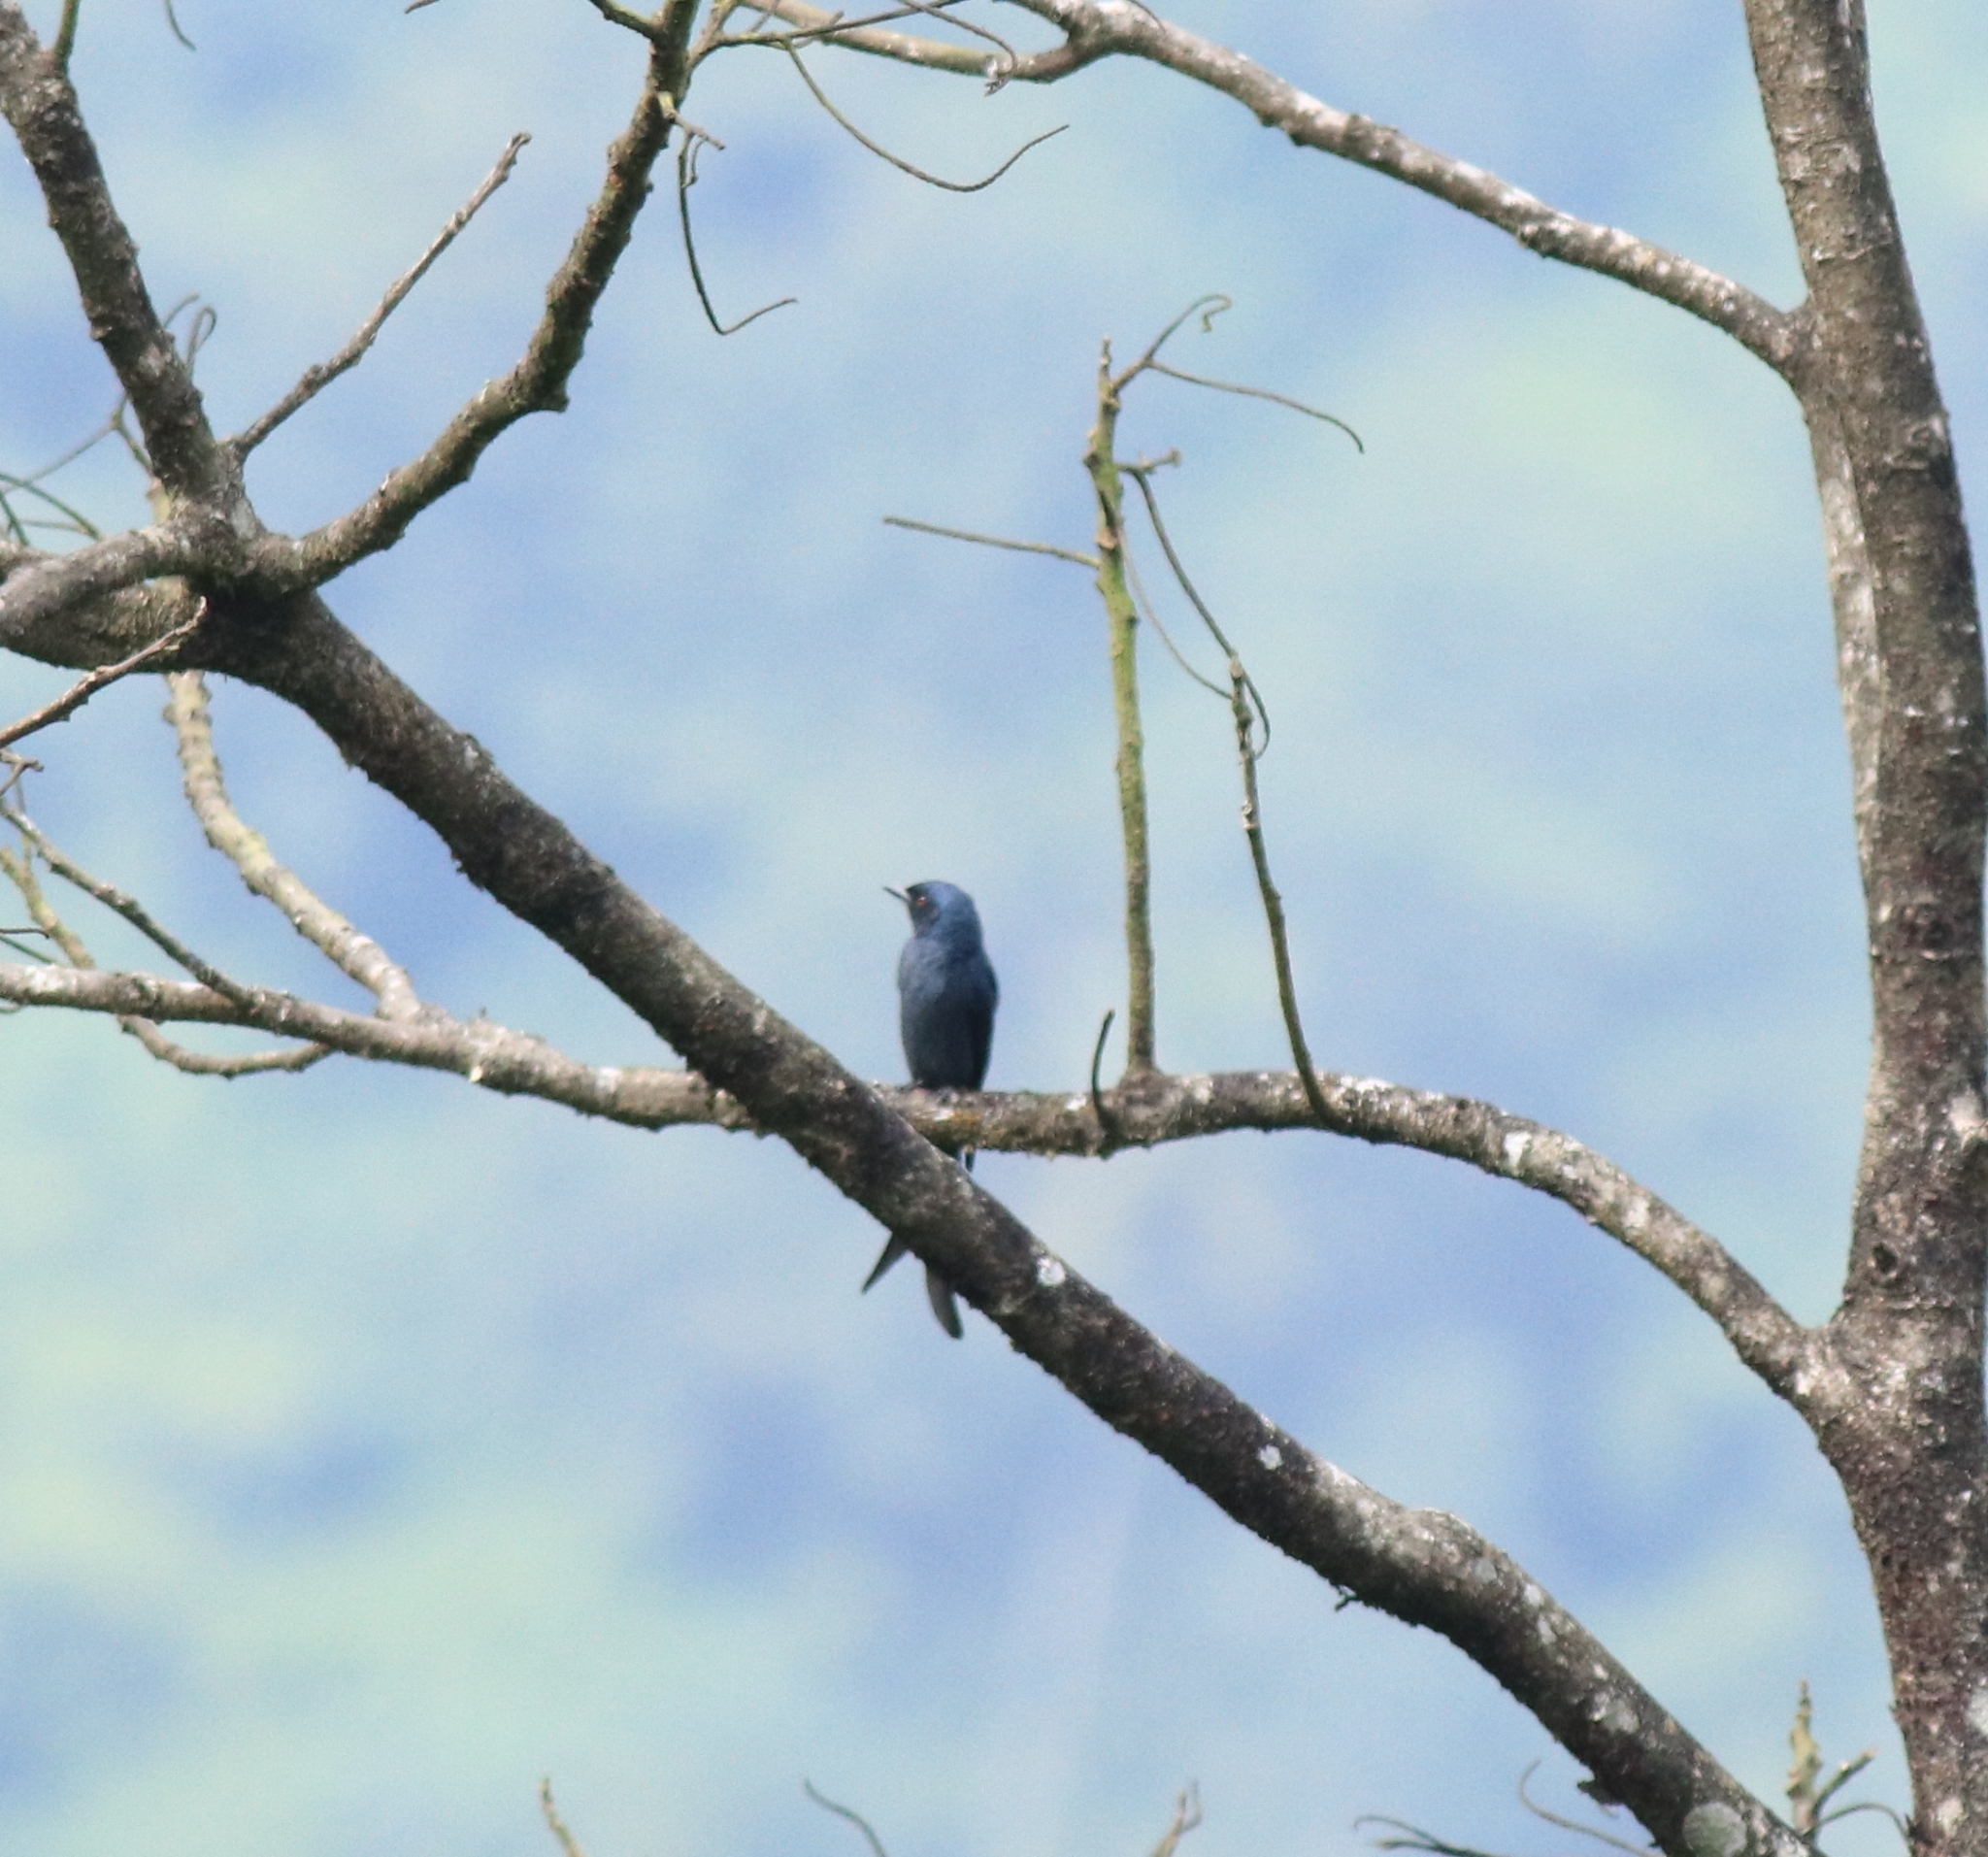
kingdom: Animalia
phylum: Chordata
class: Aves
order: Passeriformes
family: Dicruridae
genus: Dicrurus
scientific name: Dicrurus leucophaeus
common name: Ashy drongo
